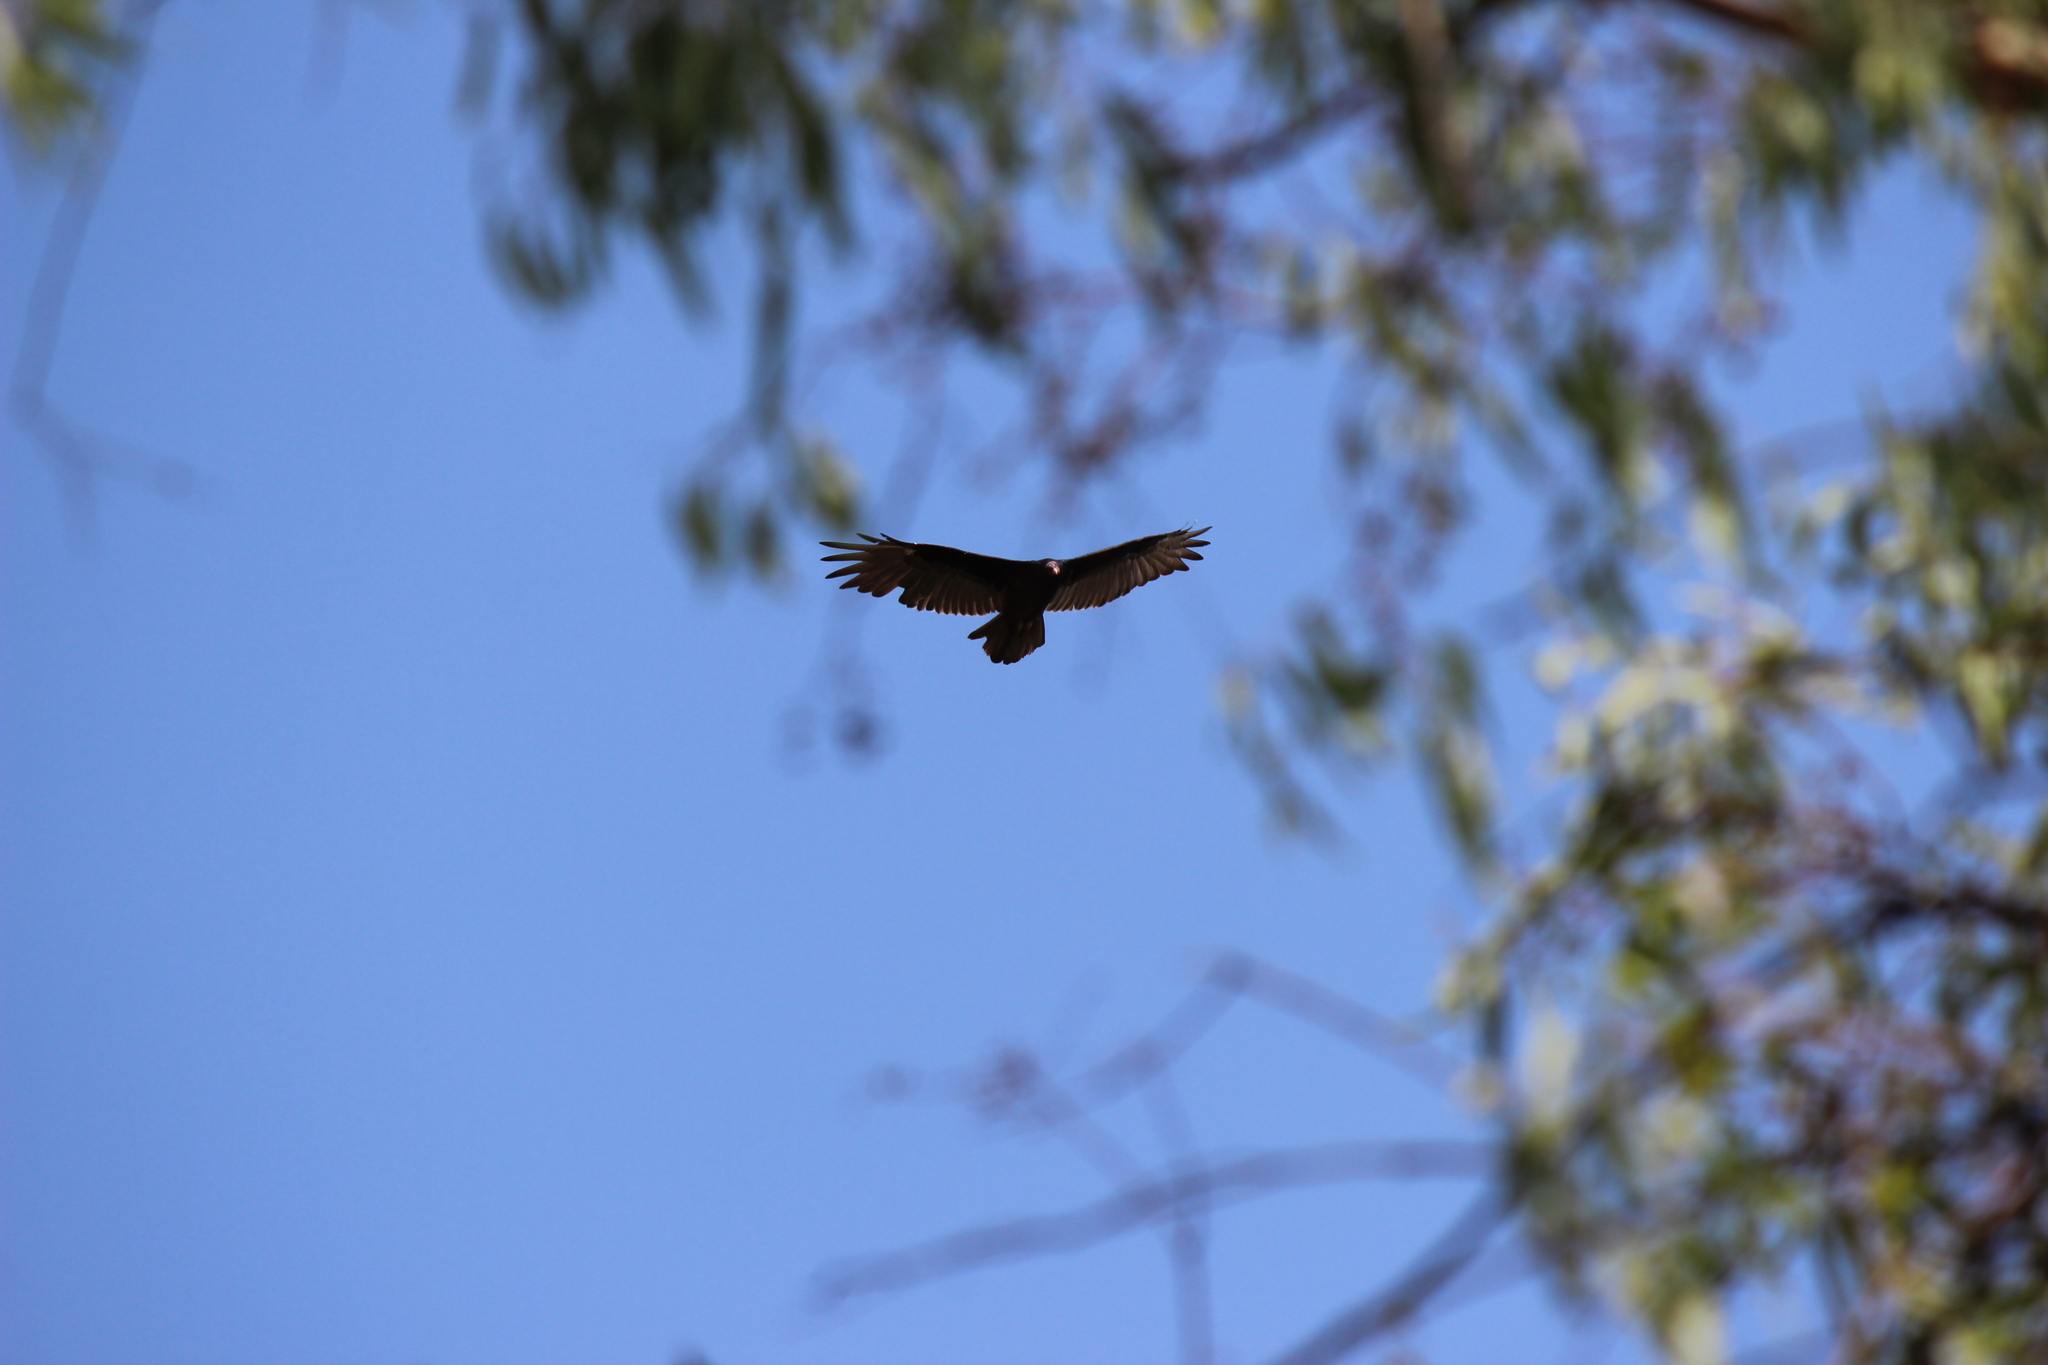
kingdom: Animalia
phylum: Chordata
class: Aves
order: Accipitriformes
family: Cathartidae
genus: Cathartes
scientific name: Cathartes aura
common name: Turkey vulture
